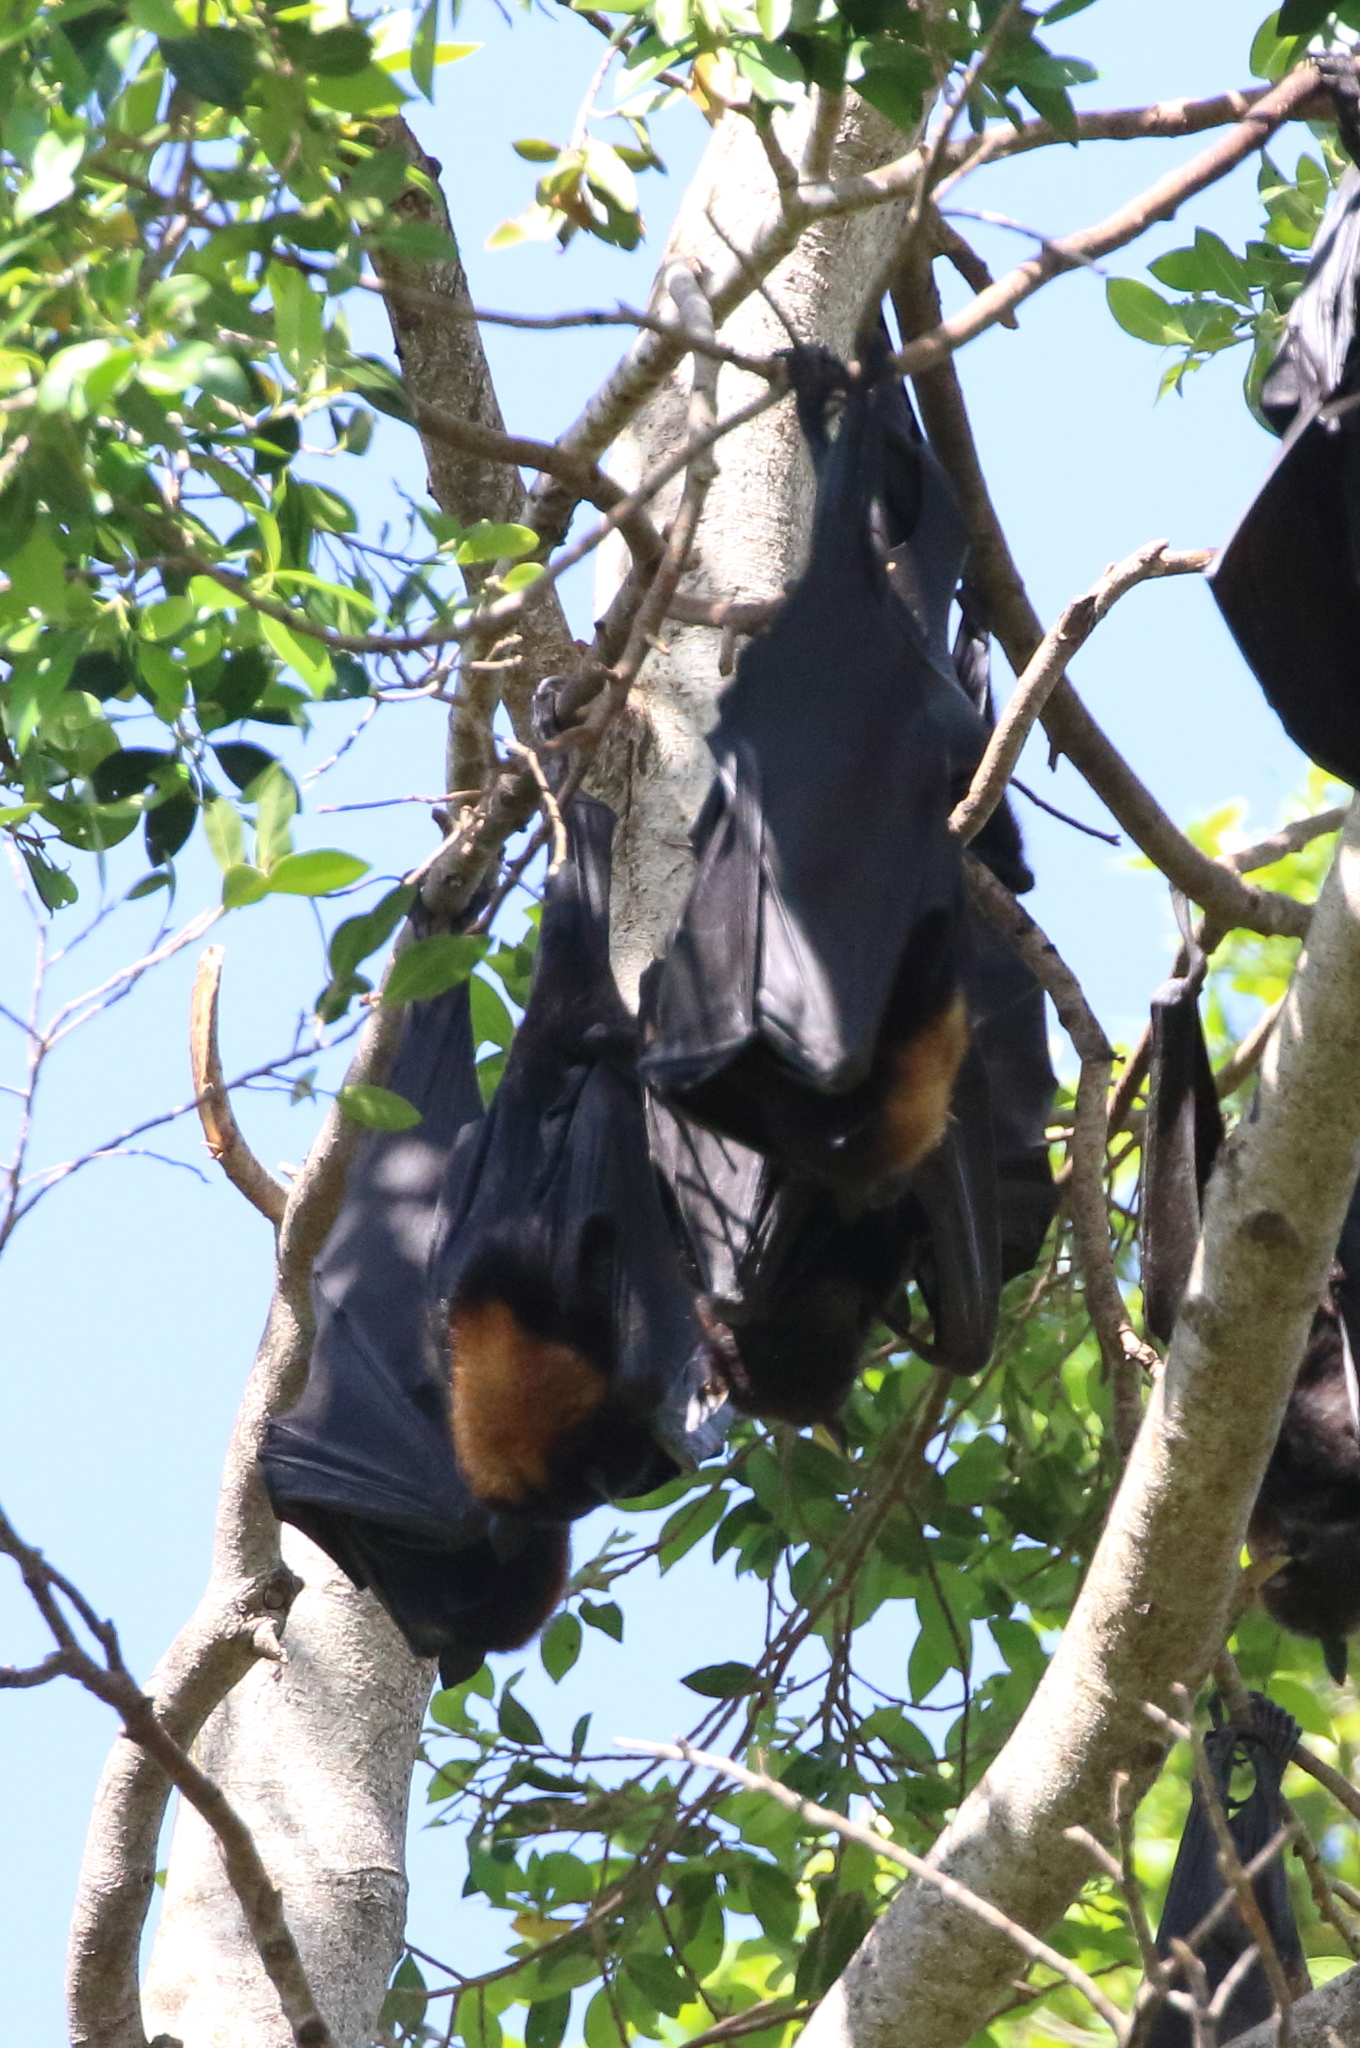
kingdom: Animalia
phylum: Chordata
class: Mammalia
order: Chiroptera
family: Pteropodidae
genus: Pteropus
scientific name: Pteropus alecto
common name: Black flying fox
